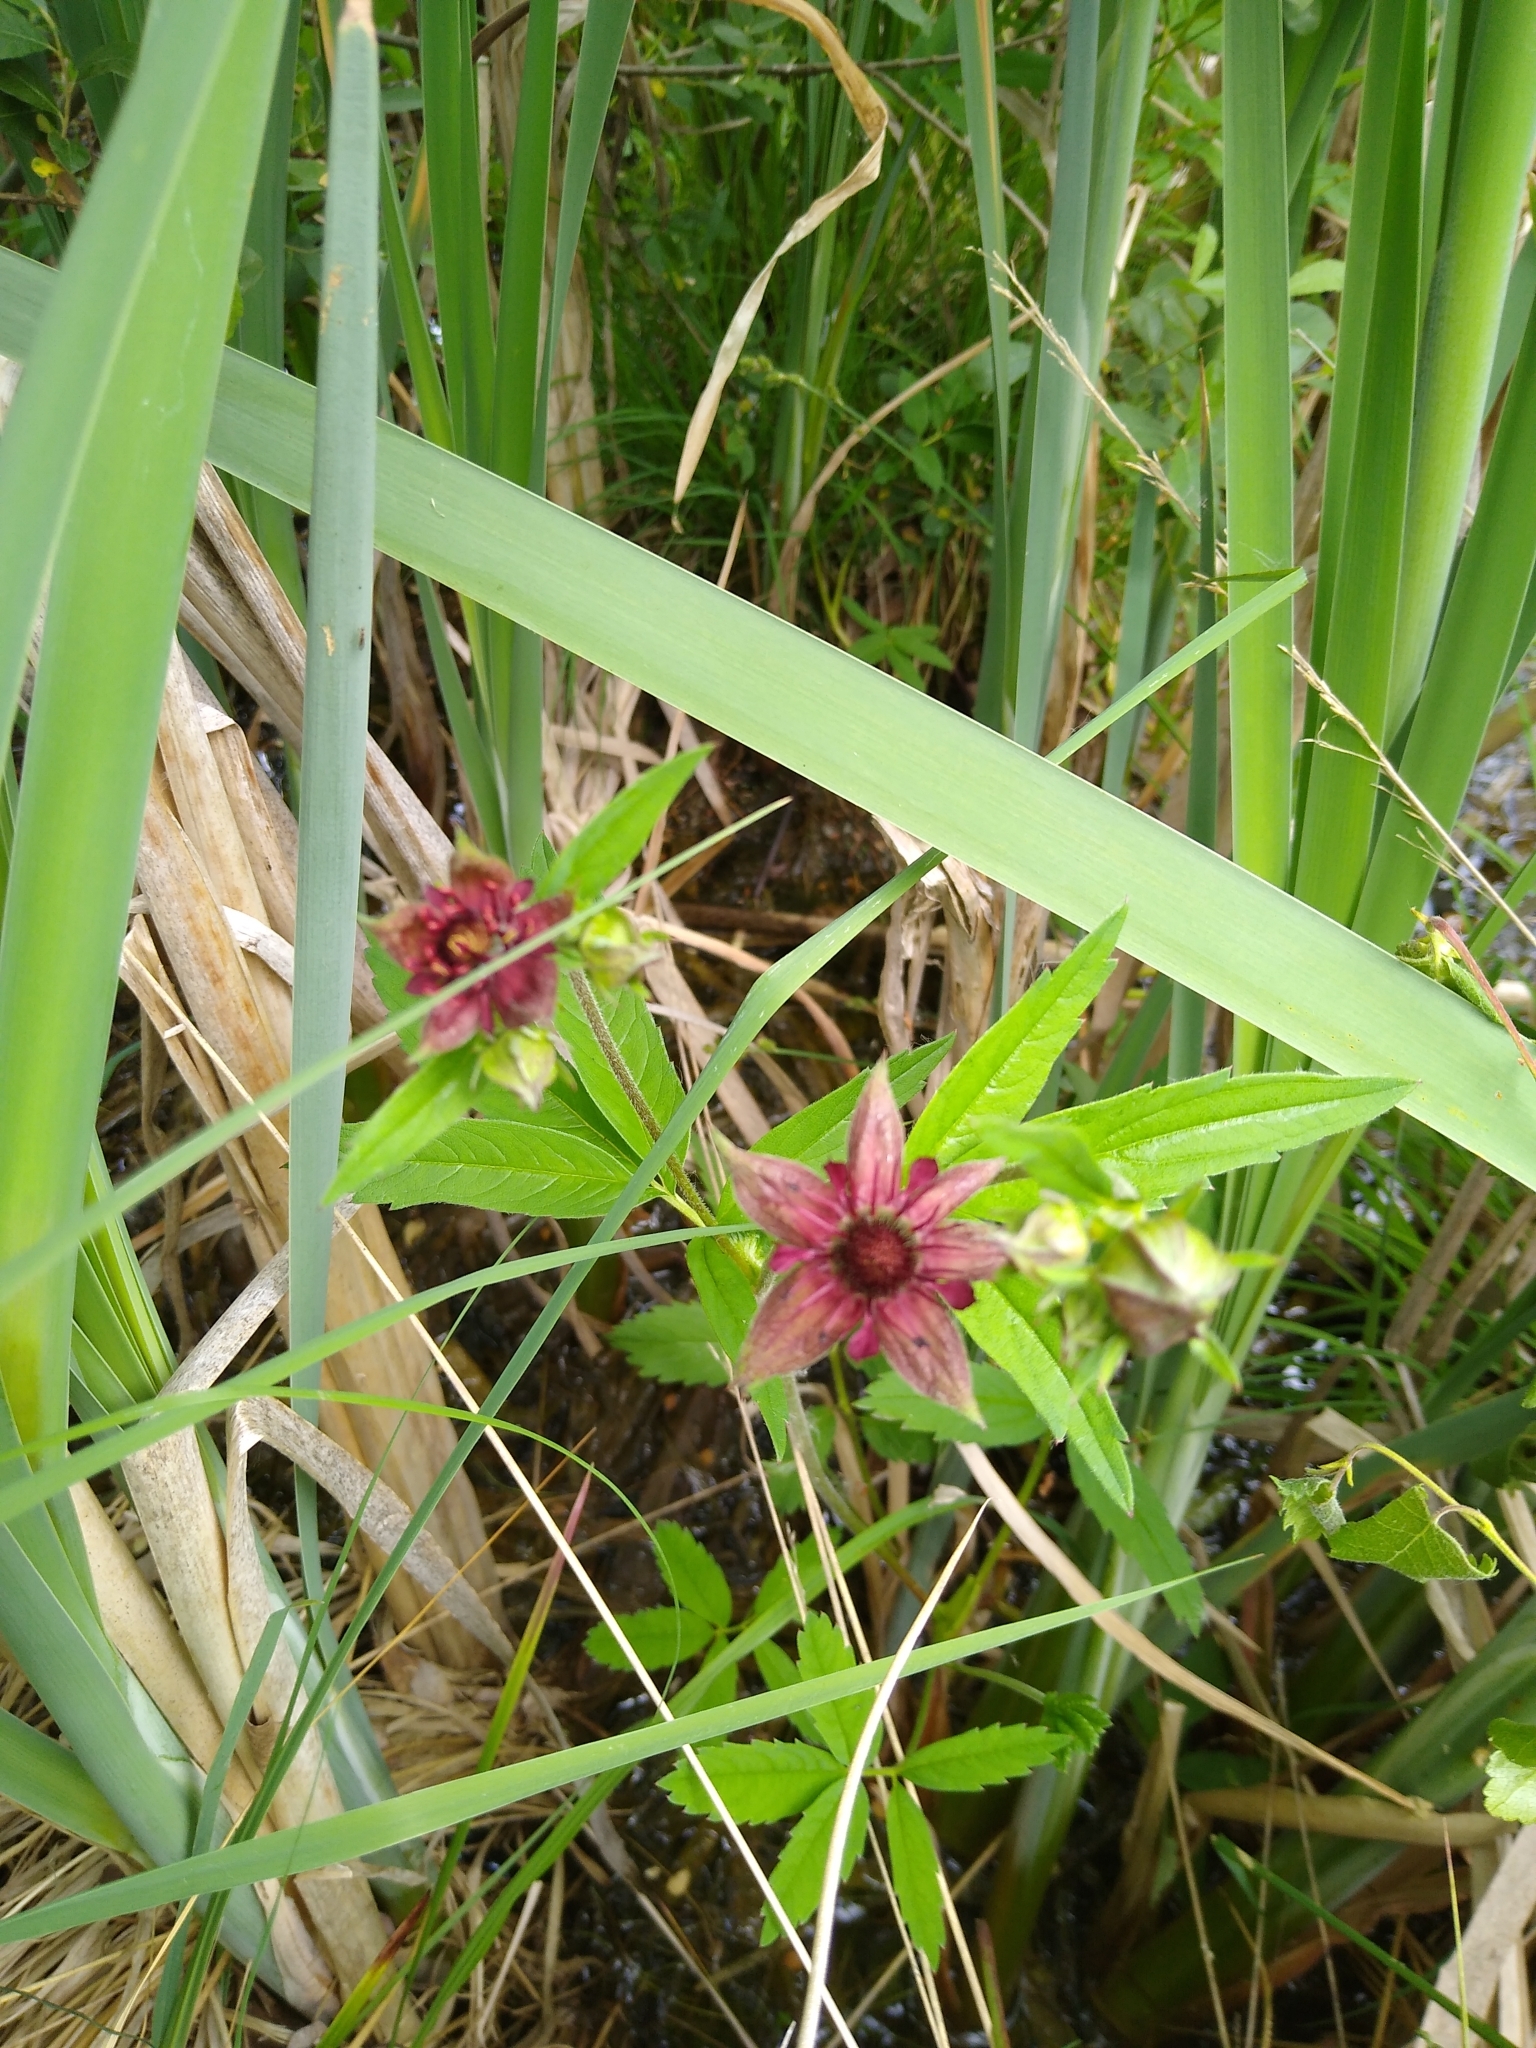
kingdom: Plantae
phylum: Tracheophyta
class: Magnoliopsida
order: Rosales
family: Rosaceae
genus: Comarum
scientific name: Comarum palustre
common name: Marsh cinquefoil
